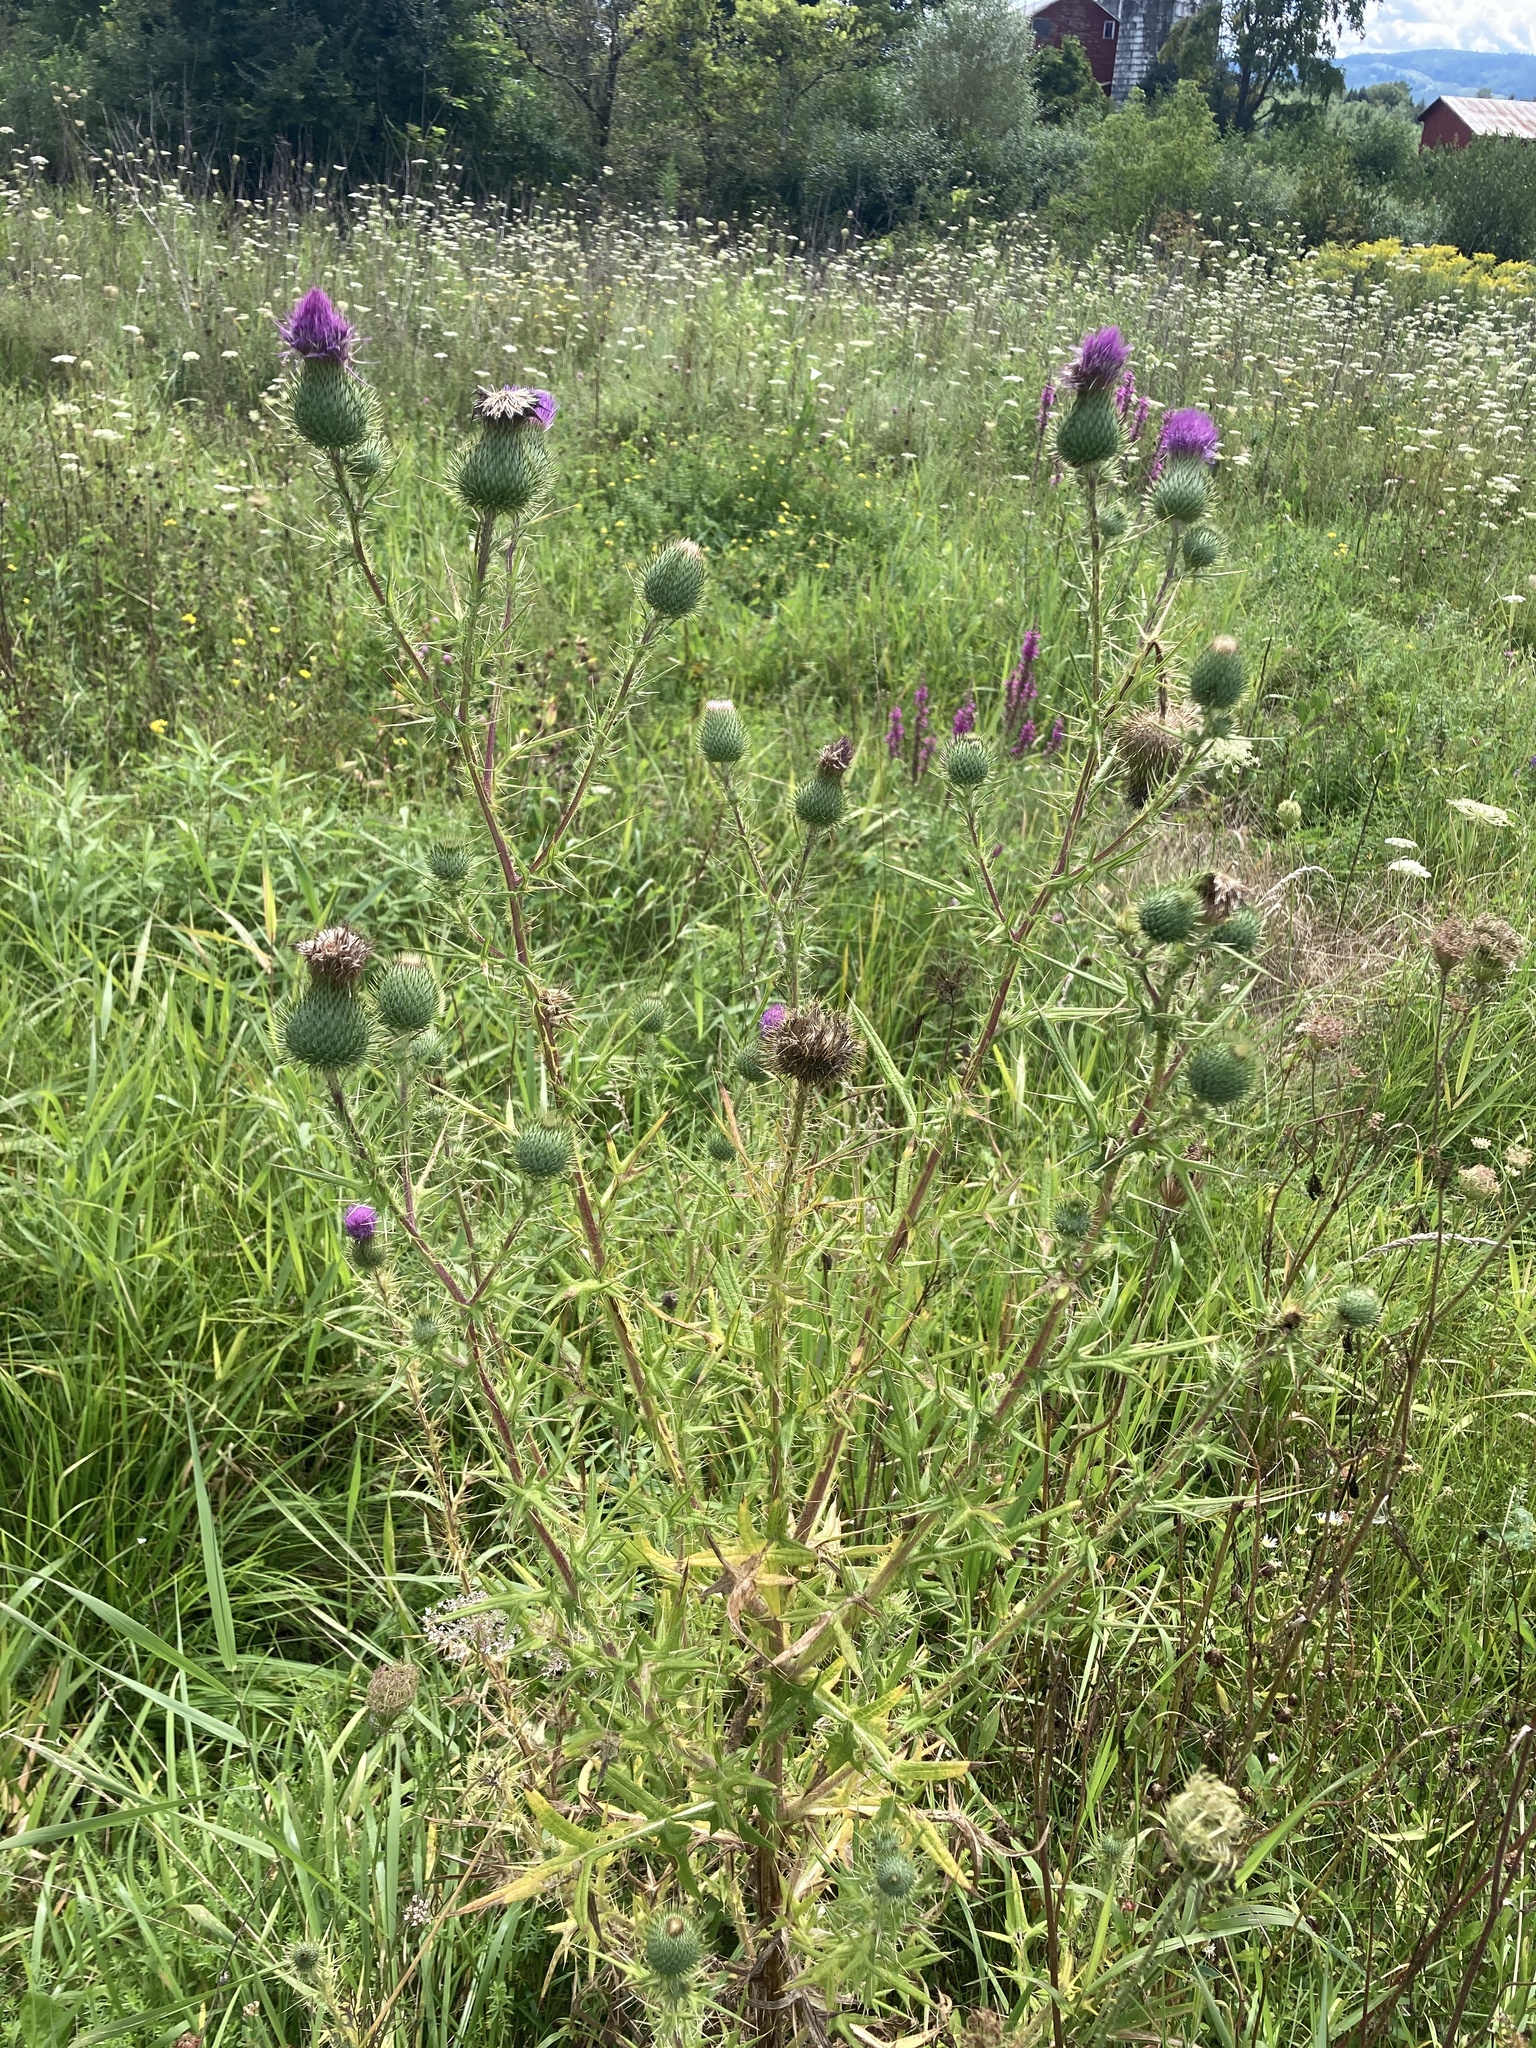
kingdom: Plantae
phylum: Tracheophyta
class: Magnoliopsida
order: Asterales
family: Asteraceae
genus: Cirsium
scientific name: Cirsium vulgare
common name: Bull thistle
